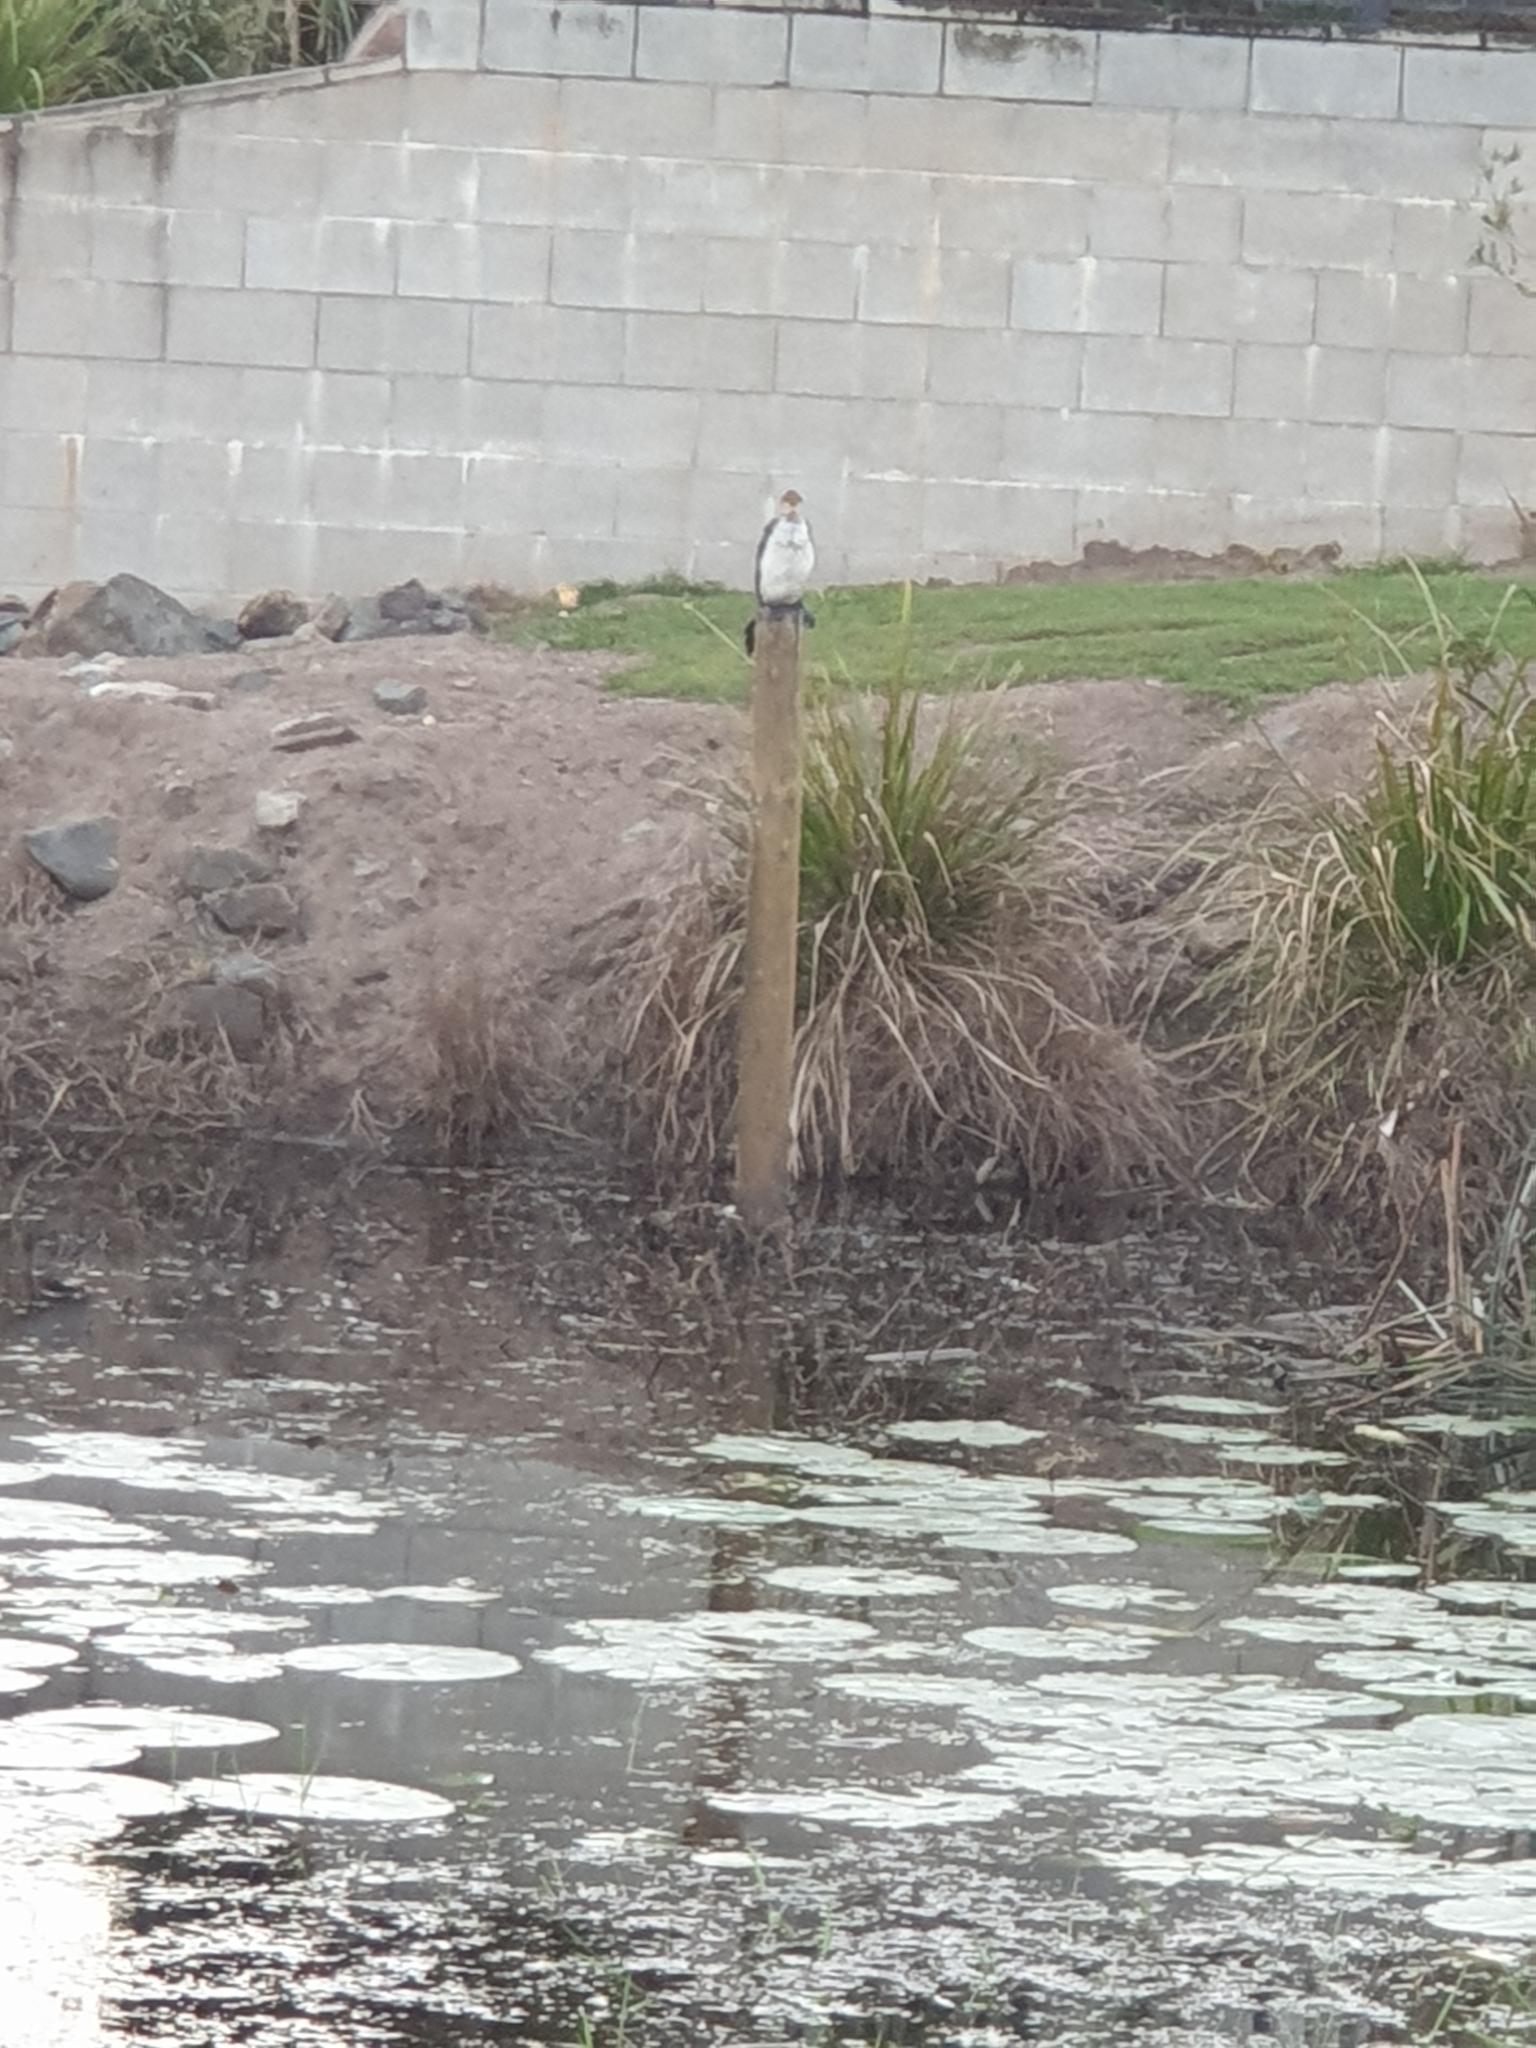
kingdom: Animalia
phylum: Chordata
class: Aves
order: Suliformes
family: Phalacrocoracidae
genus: Microcarbo
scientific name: Microcarbo melanoleucos
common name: Little pied cormorant
